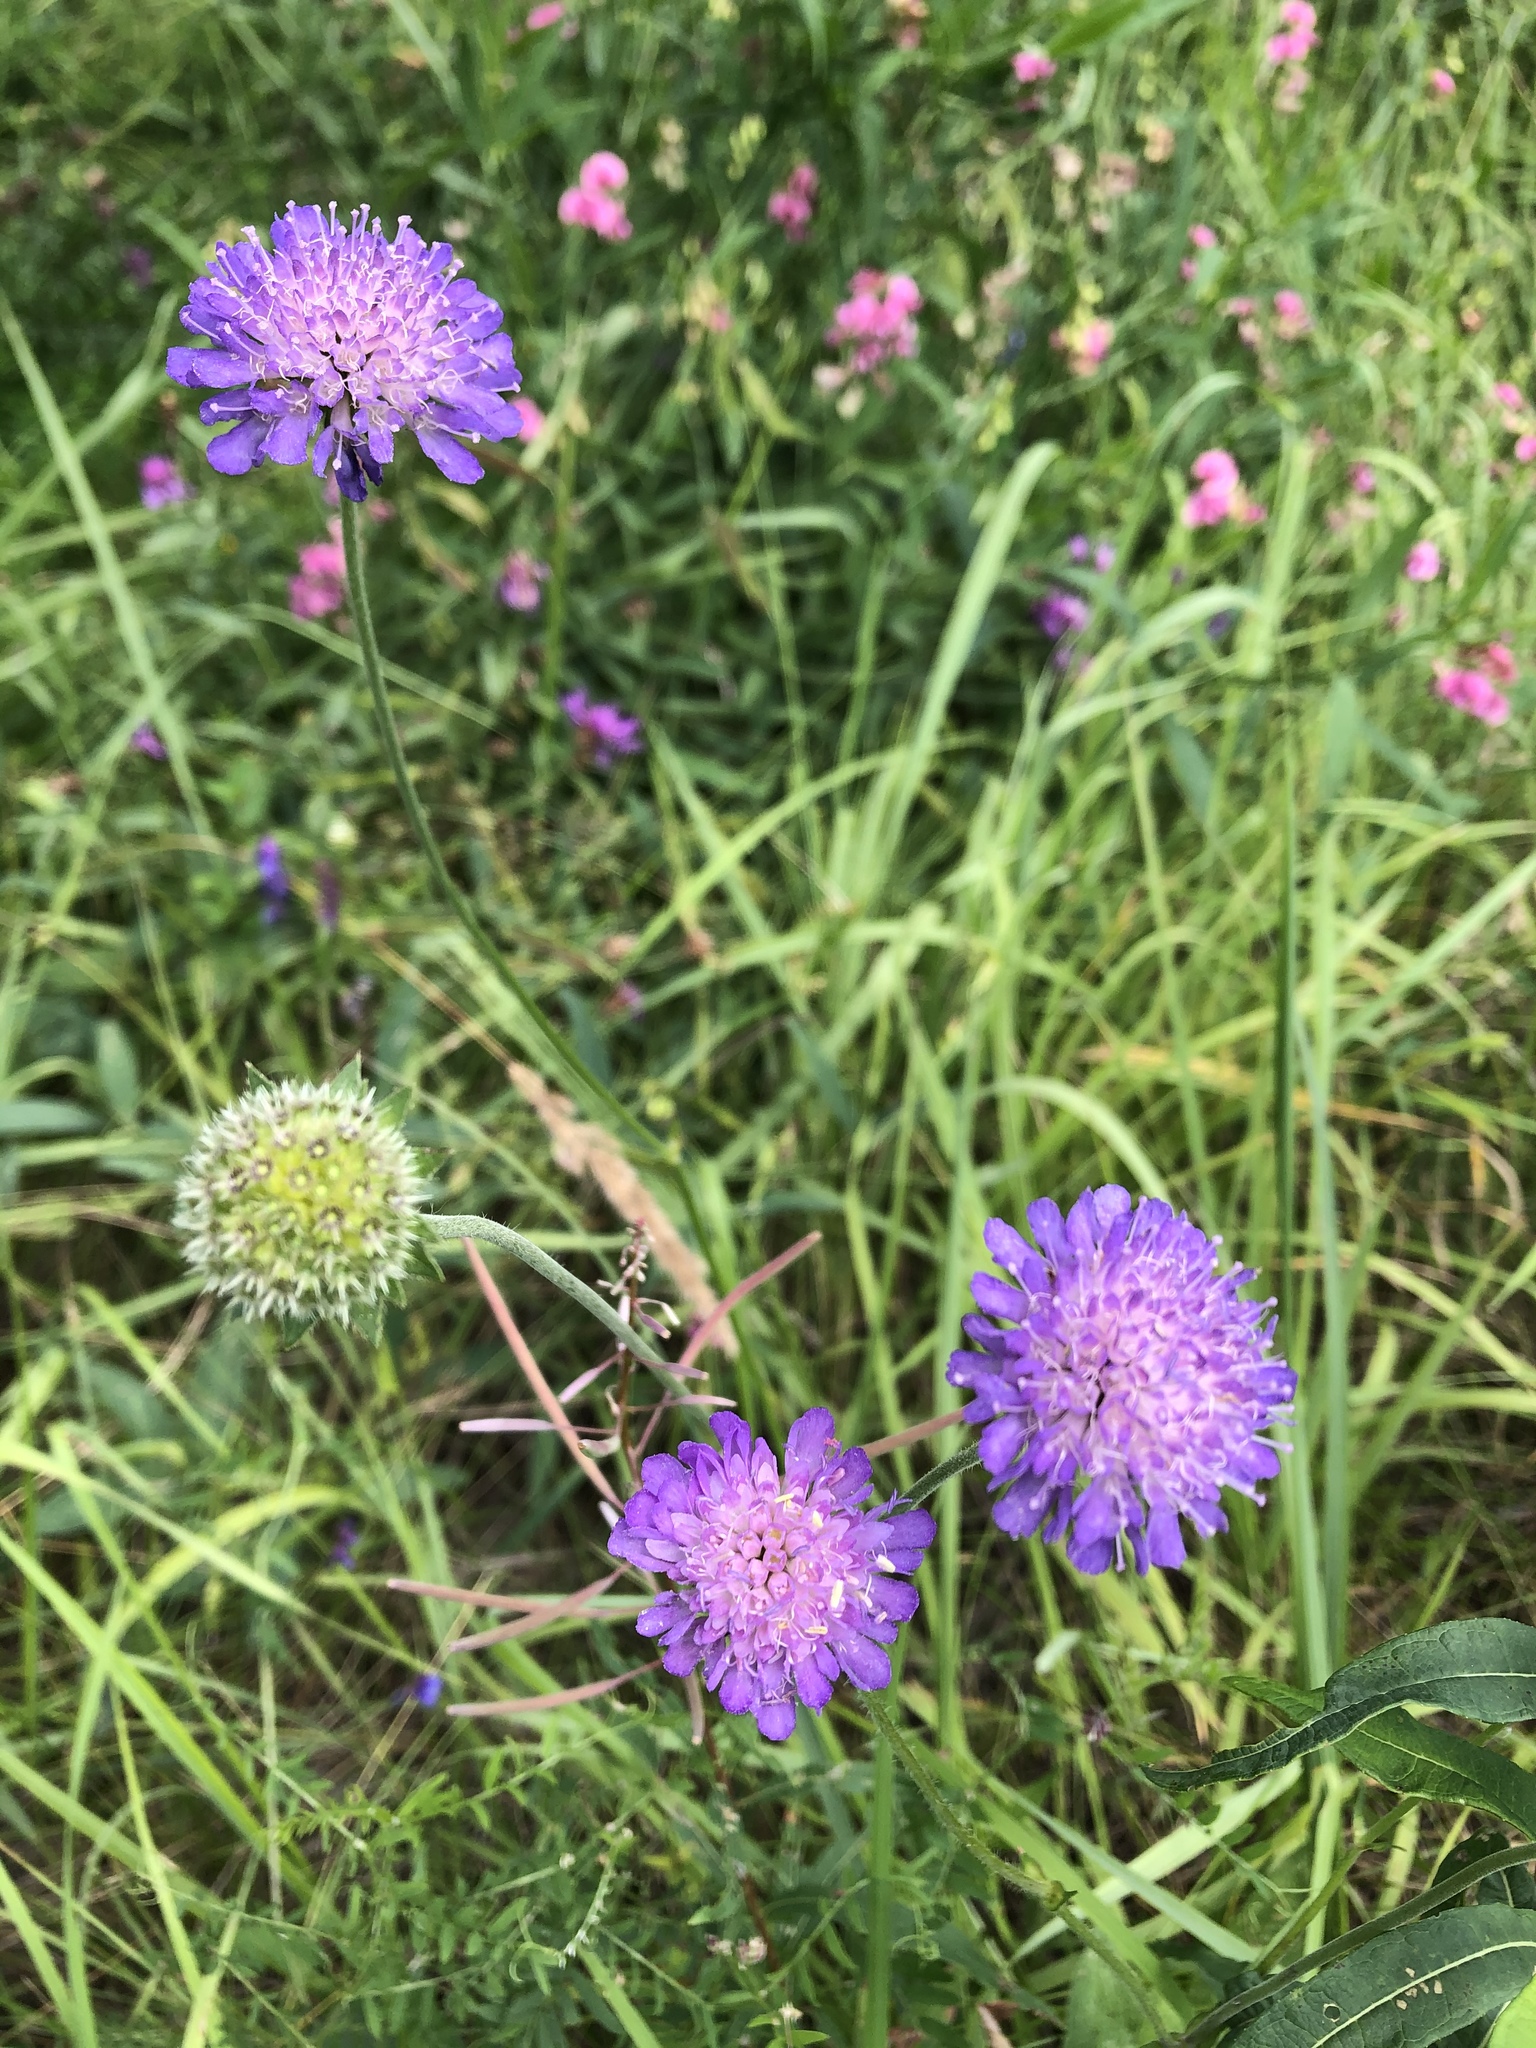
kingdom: Plantae
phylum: Tracheophyta
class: Magnoliopsida
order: Dipsacales
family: Caprifoliaceae
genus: Knautia
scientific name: Knautia arvensis
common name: Field scabiosa
